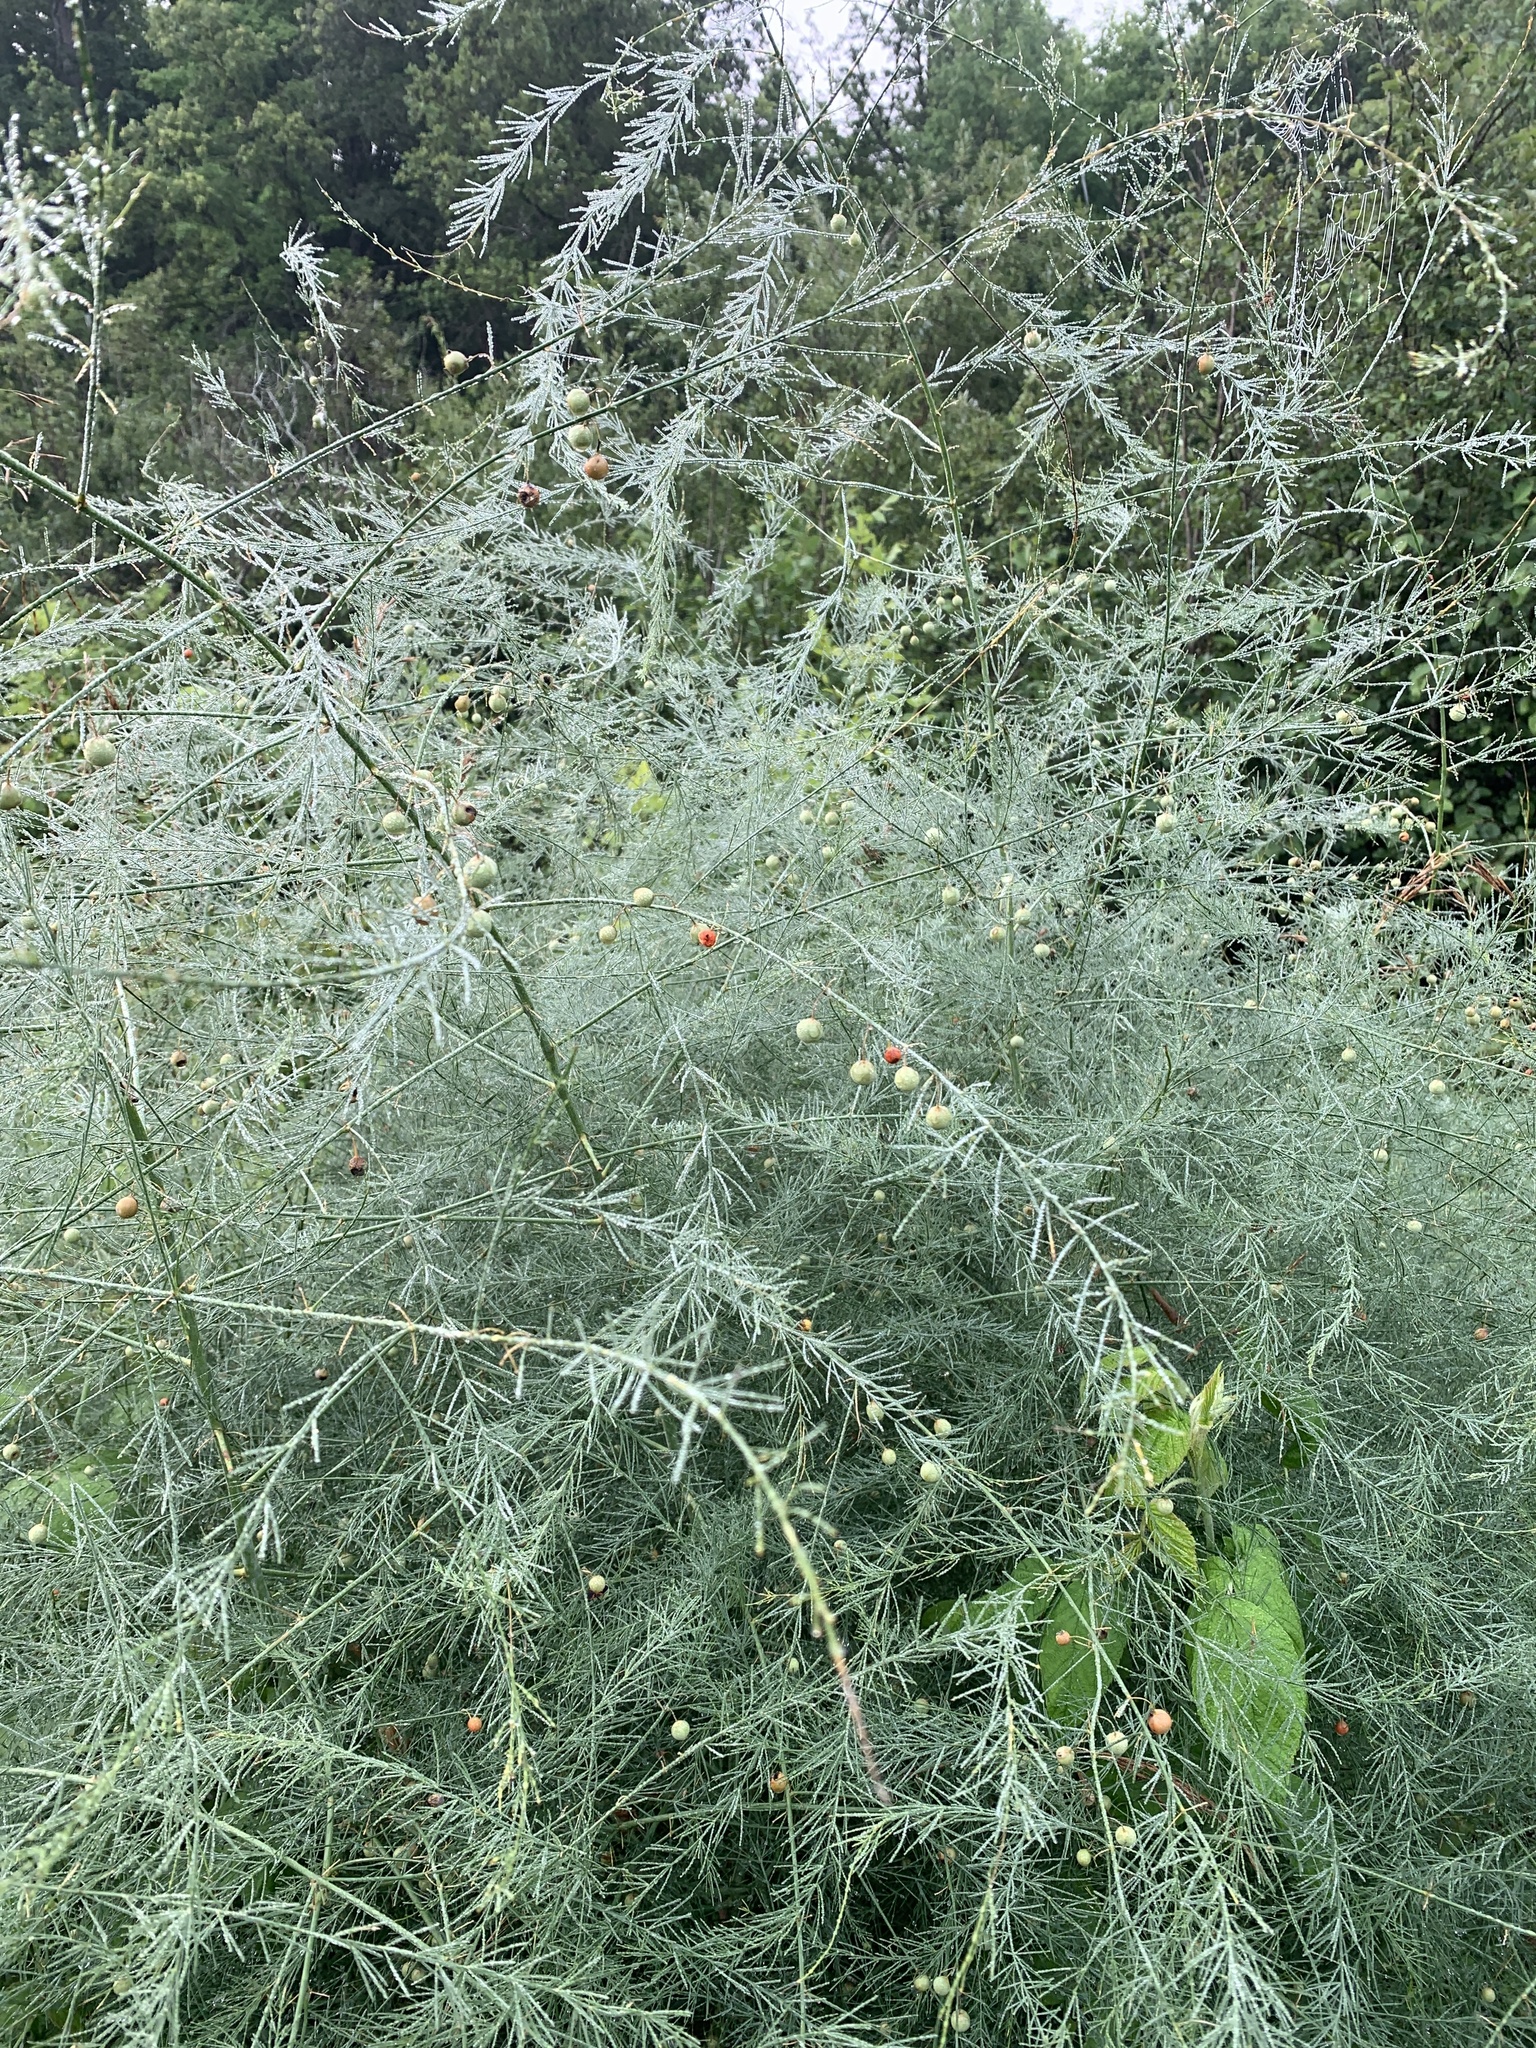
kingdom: Plantae
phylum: Tracheophyta
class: Liliopsida
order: Asparagales
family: Asparagaceae
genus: Asparagus
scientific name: Asparagus officinalis
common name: Garden asparagus
